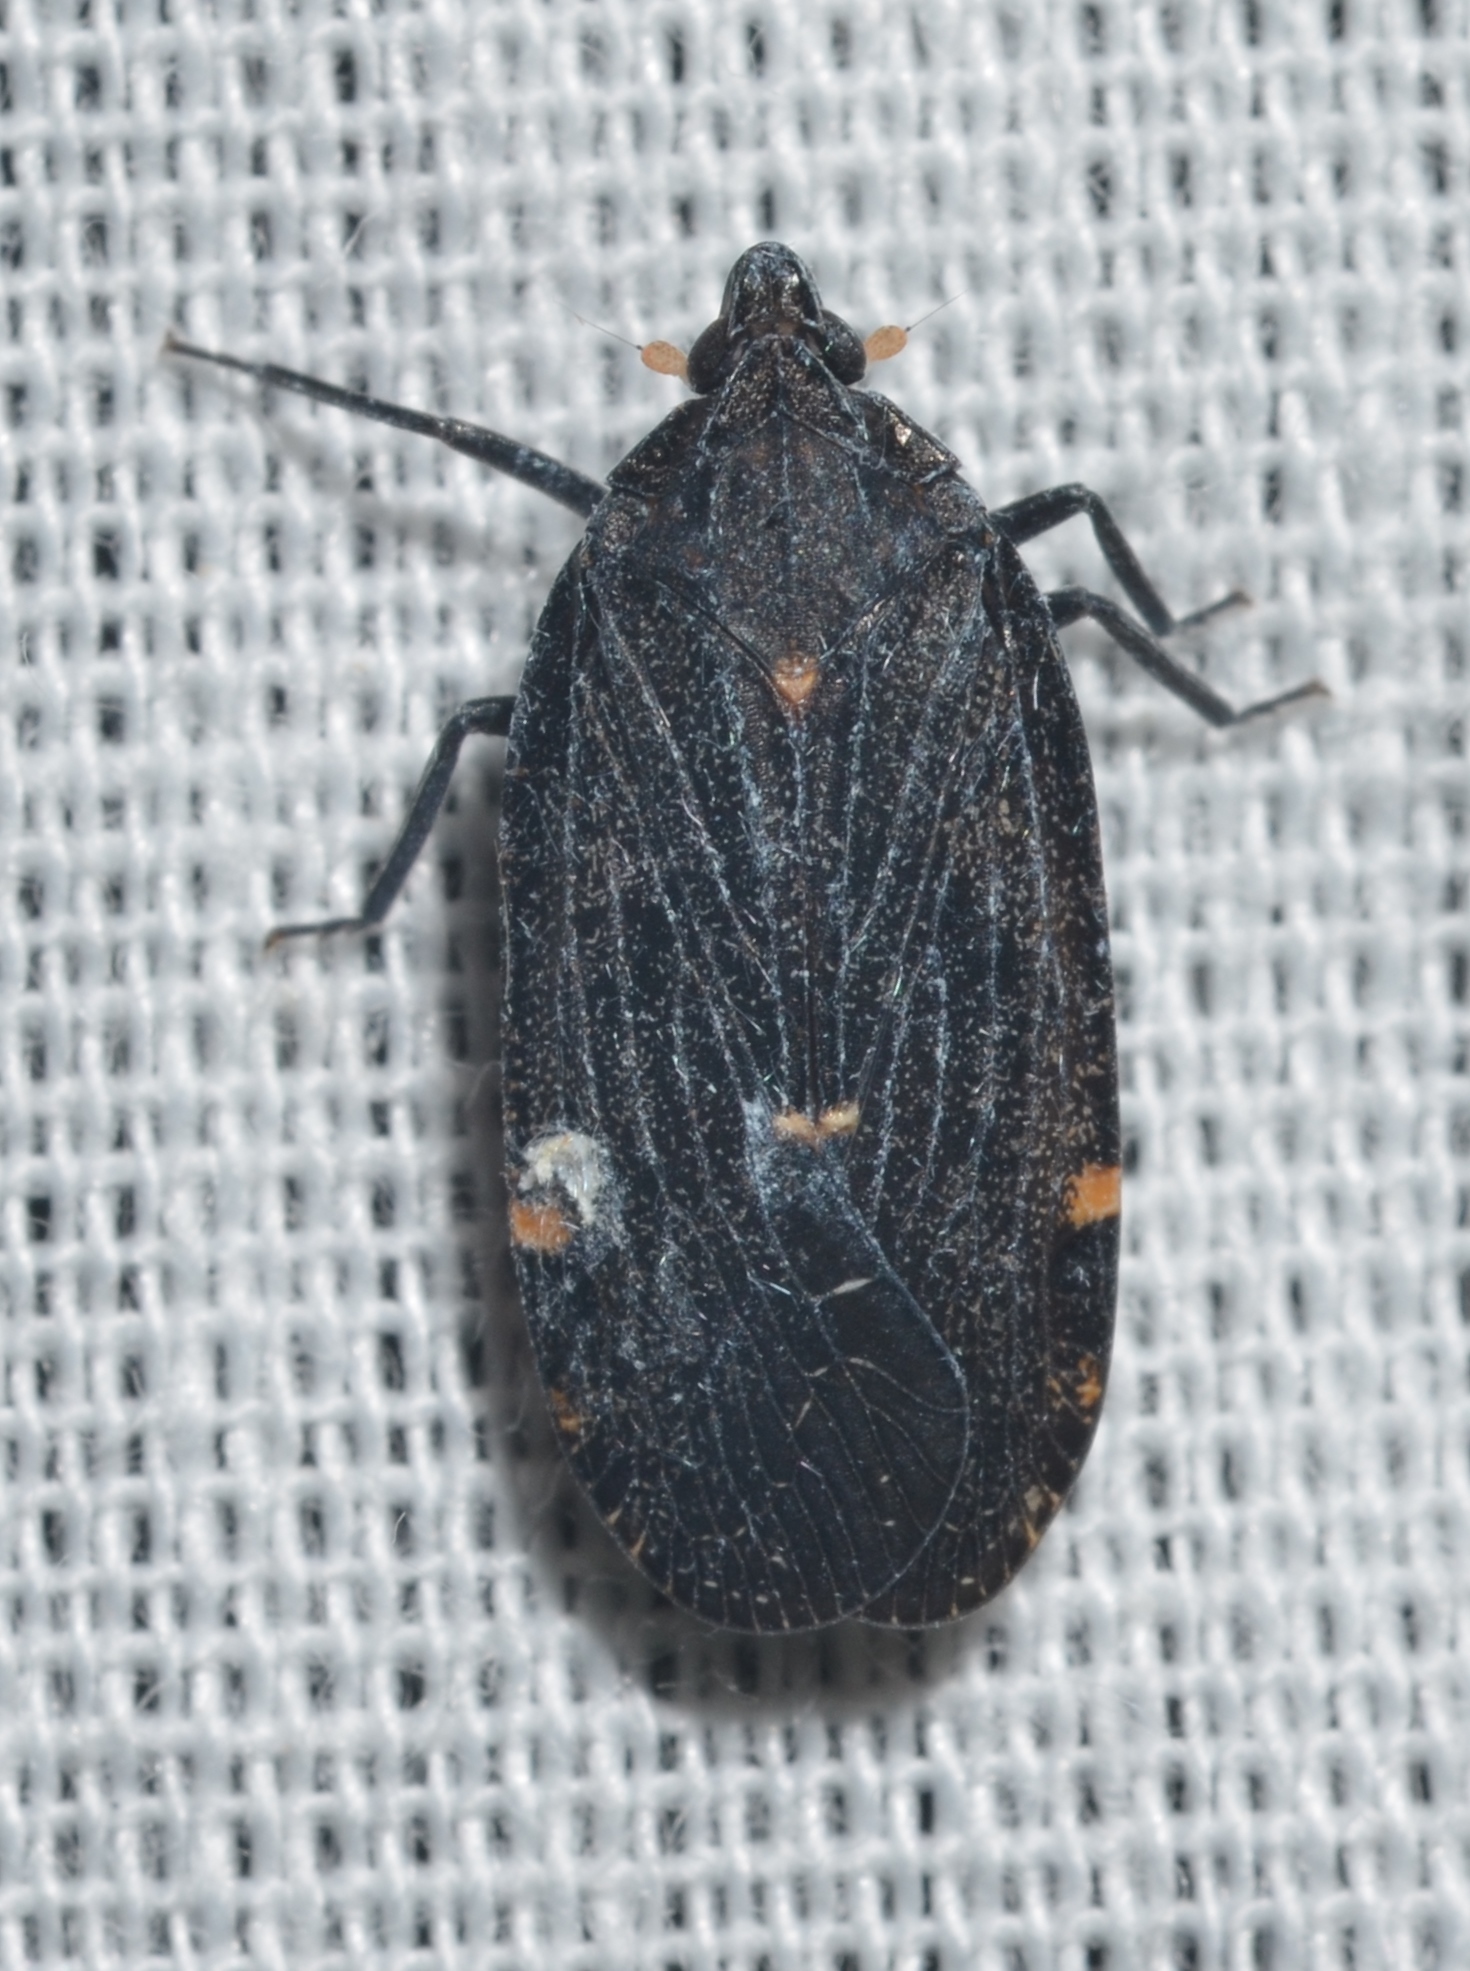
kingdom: Animalia
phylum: Arthropoda
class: Insecta
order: Hemiptera
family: Achilidae
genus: Cixidia
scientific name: Cixidia opaca
